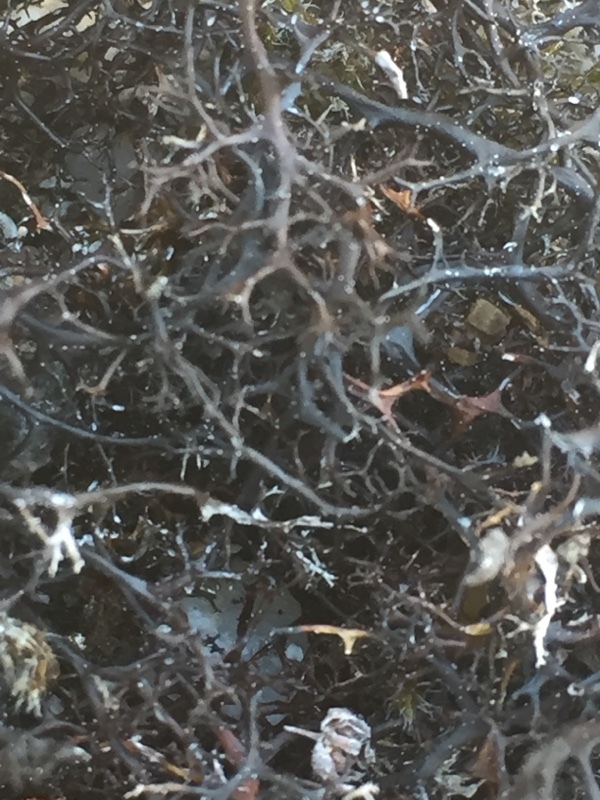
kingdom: Fungi
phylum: Ascomycota
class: Lecanoromycetes
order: Lecanorales
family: Parmeliaceae
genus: Cetraria
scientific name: Cetraria aculeata
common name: Spiny heath lichen
